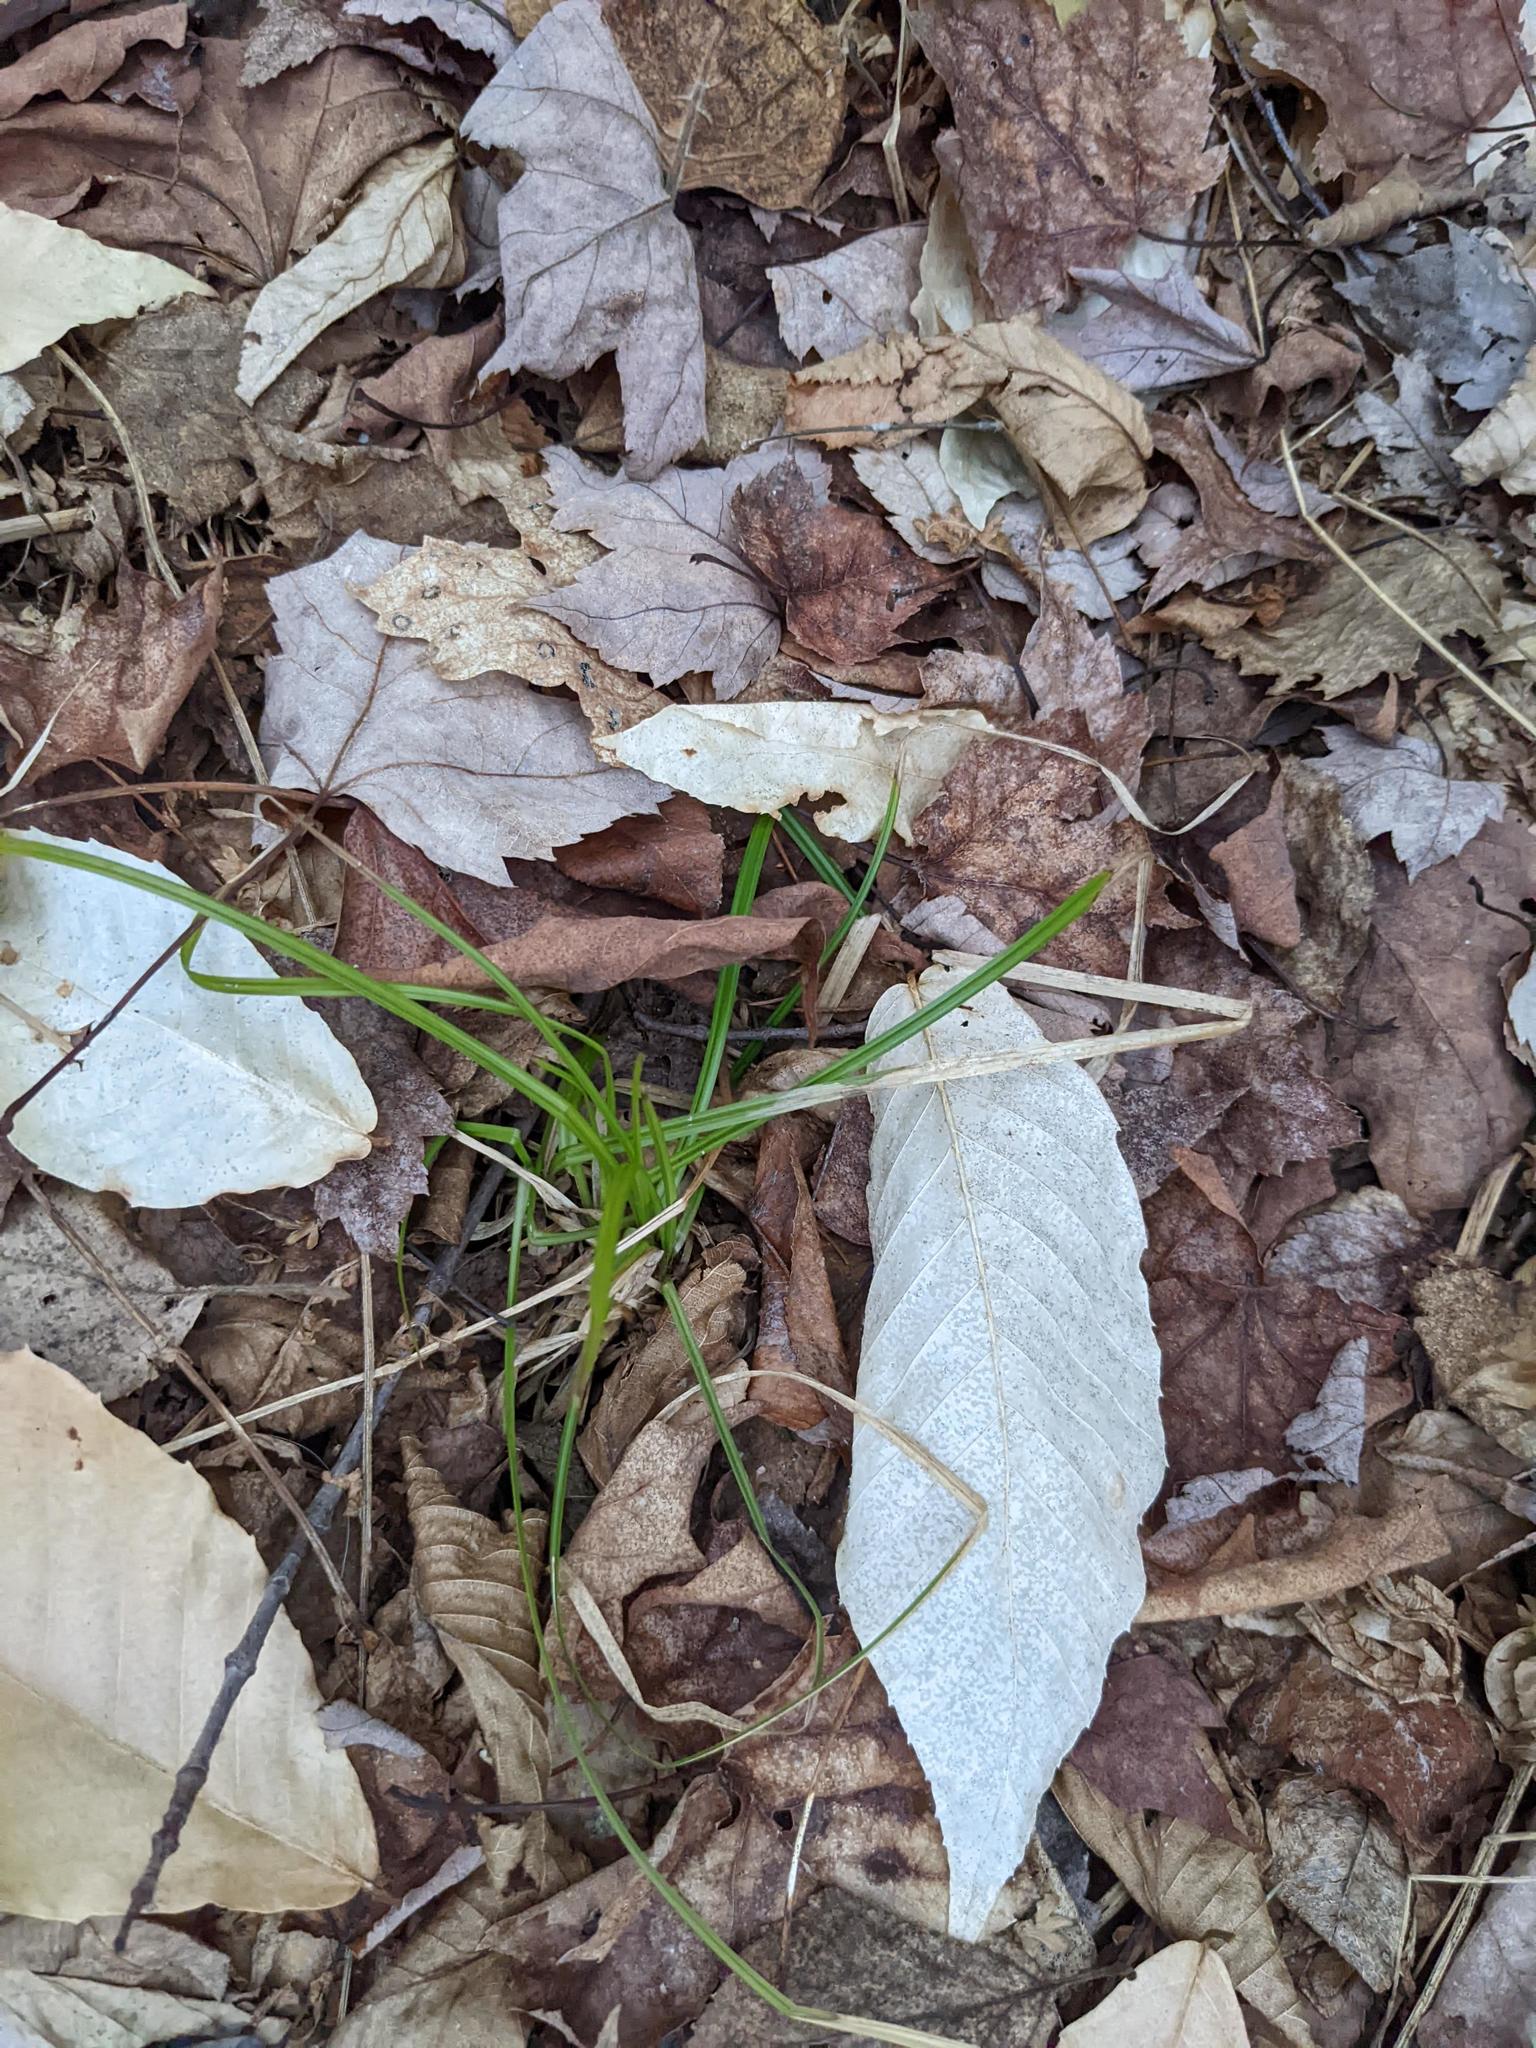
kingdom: Plantae
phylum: Tracheophyta
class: Magnoliopsida
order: Fagales
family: Fagaceae
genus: Fagus
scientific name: Fagus grandifolia
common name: American beech
